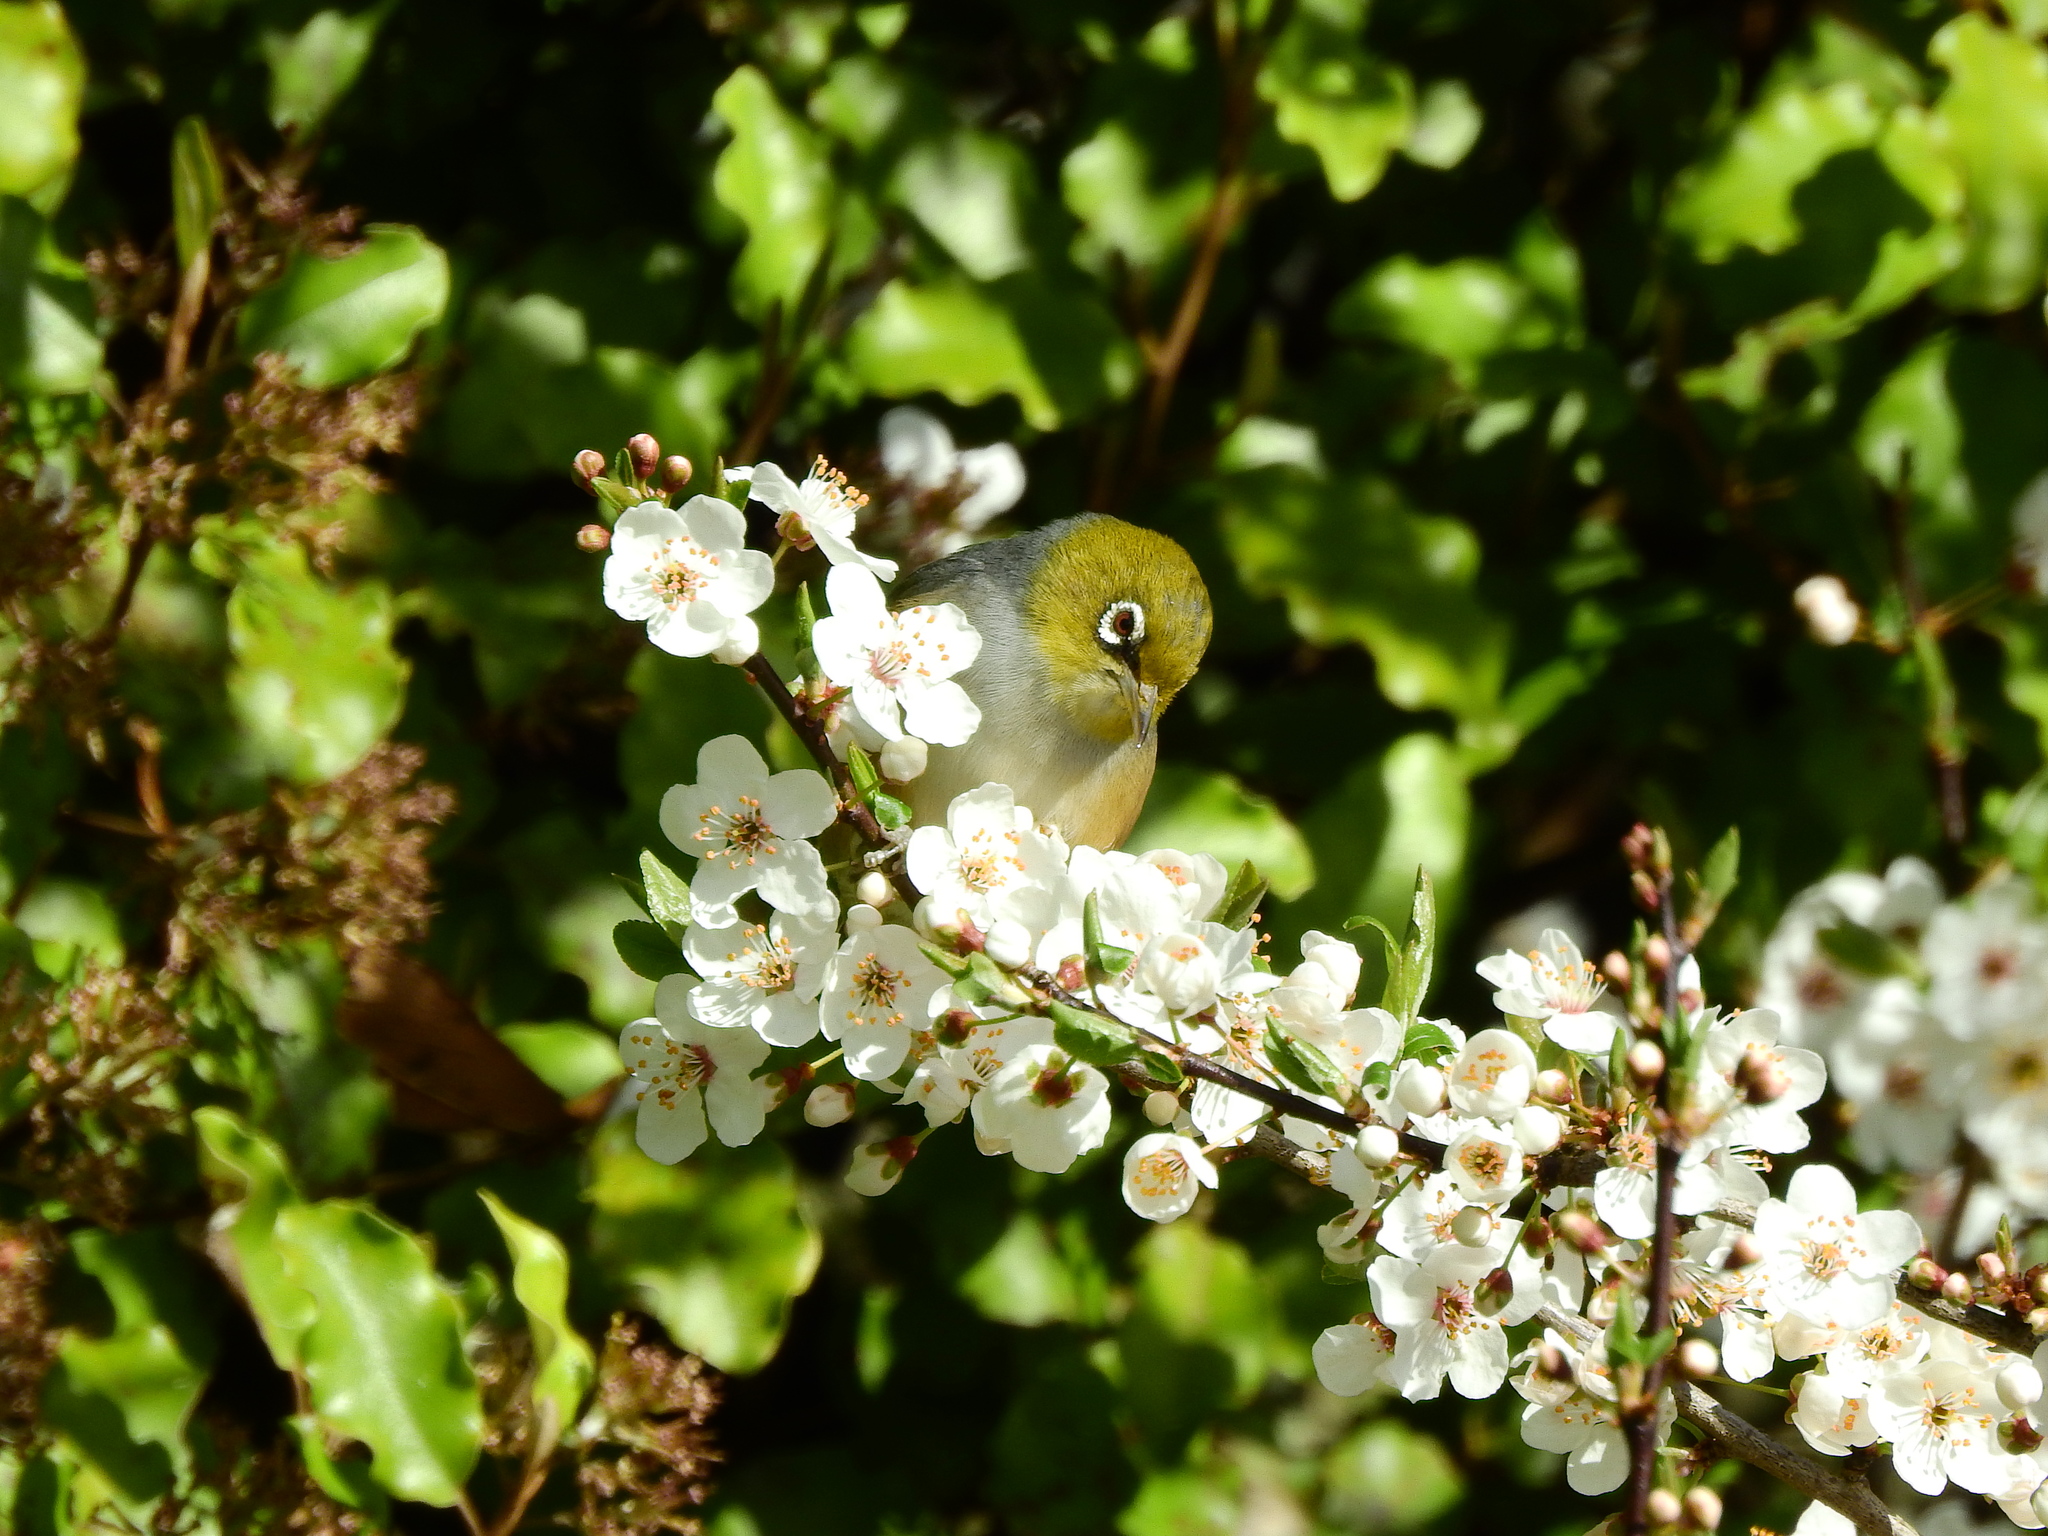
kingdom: Animalia
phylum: Chordata
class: Aves
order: Passeriformes
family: Zosteropidae
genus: Zosterops
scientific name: Zosterops lateralis
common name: Silvereye
